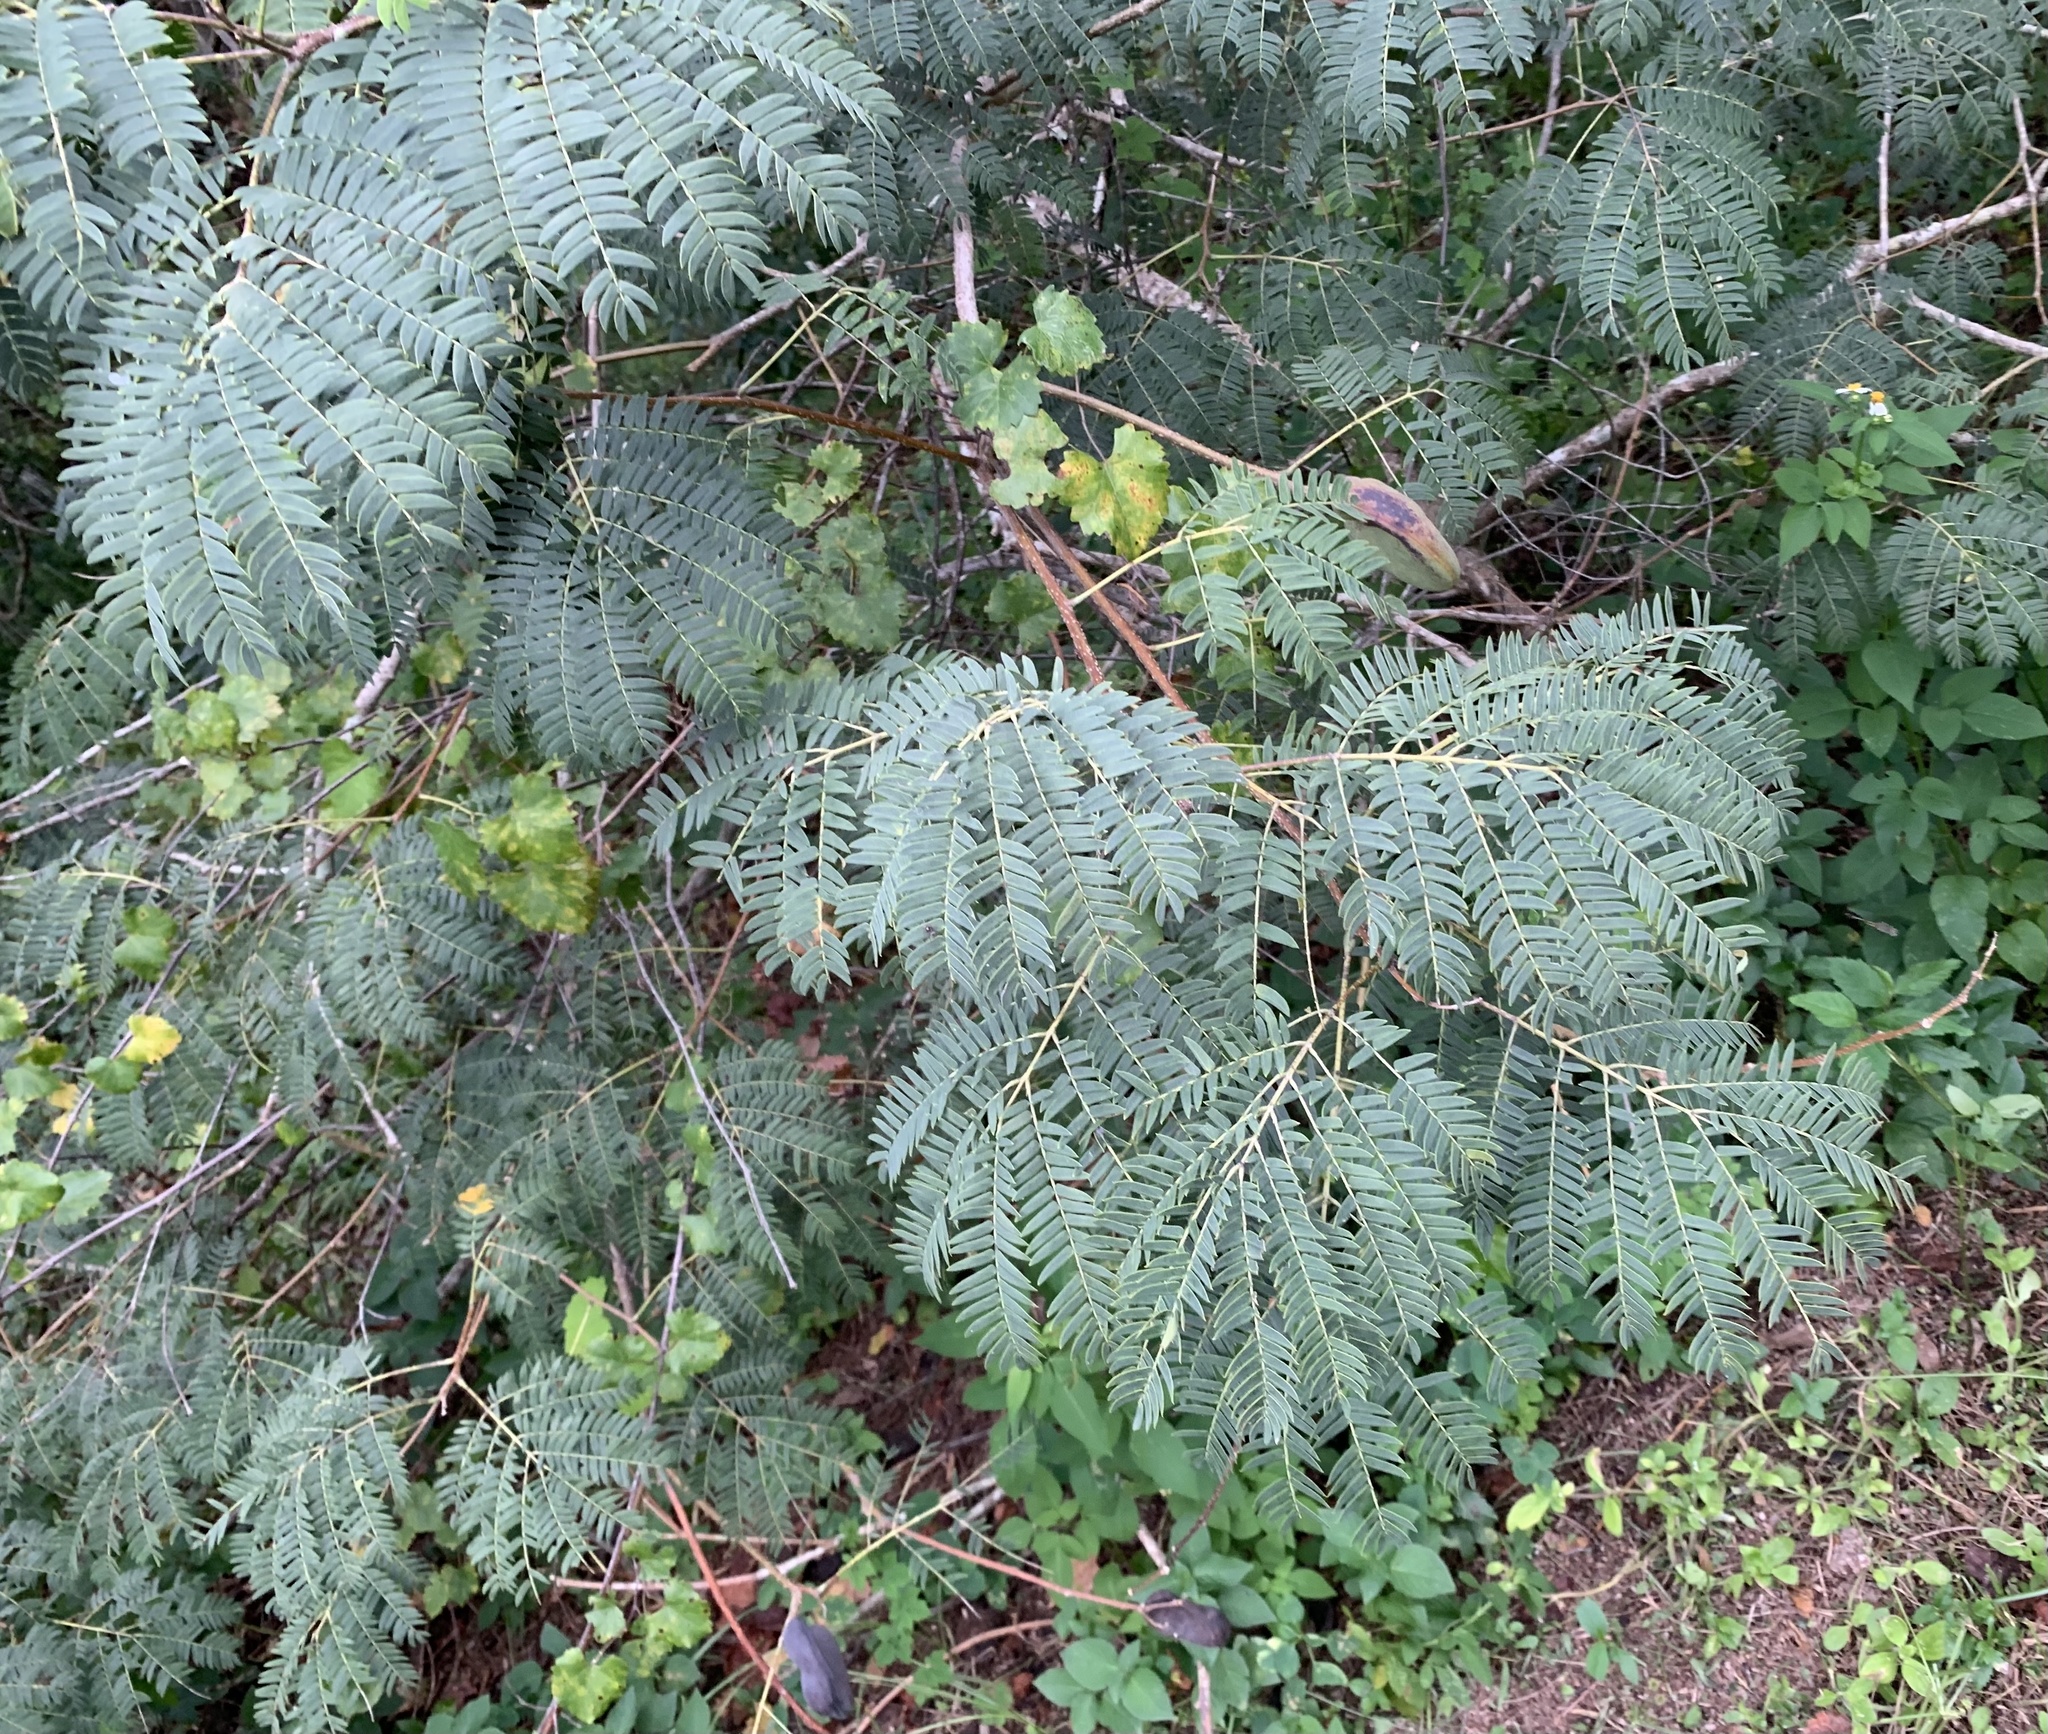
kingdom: Plantae
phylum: Tracheophyta
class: Magnoliopsida
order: Fabales
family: Fabaceae
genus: Enterolobium
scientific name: Enterolobium contortisiliquum
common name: Pacara earpod tree
